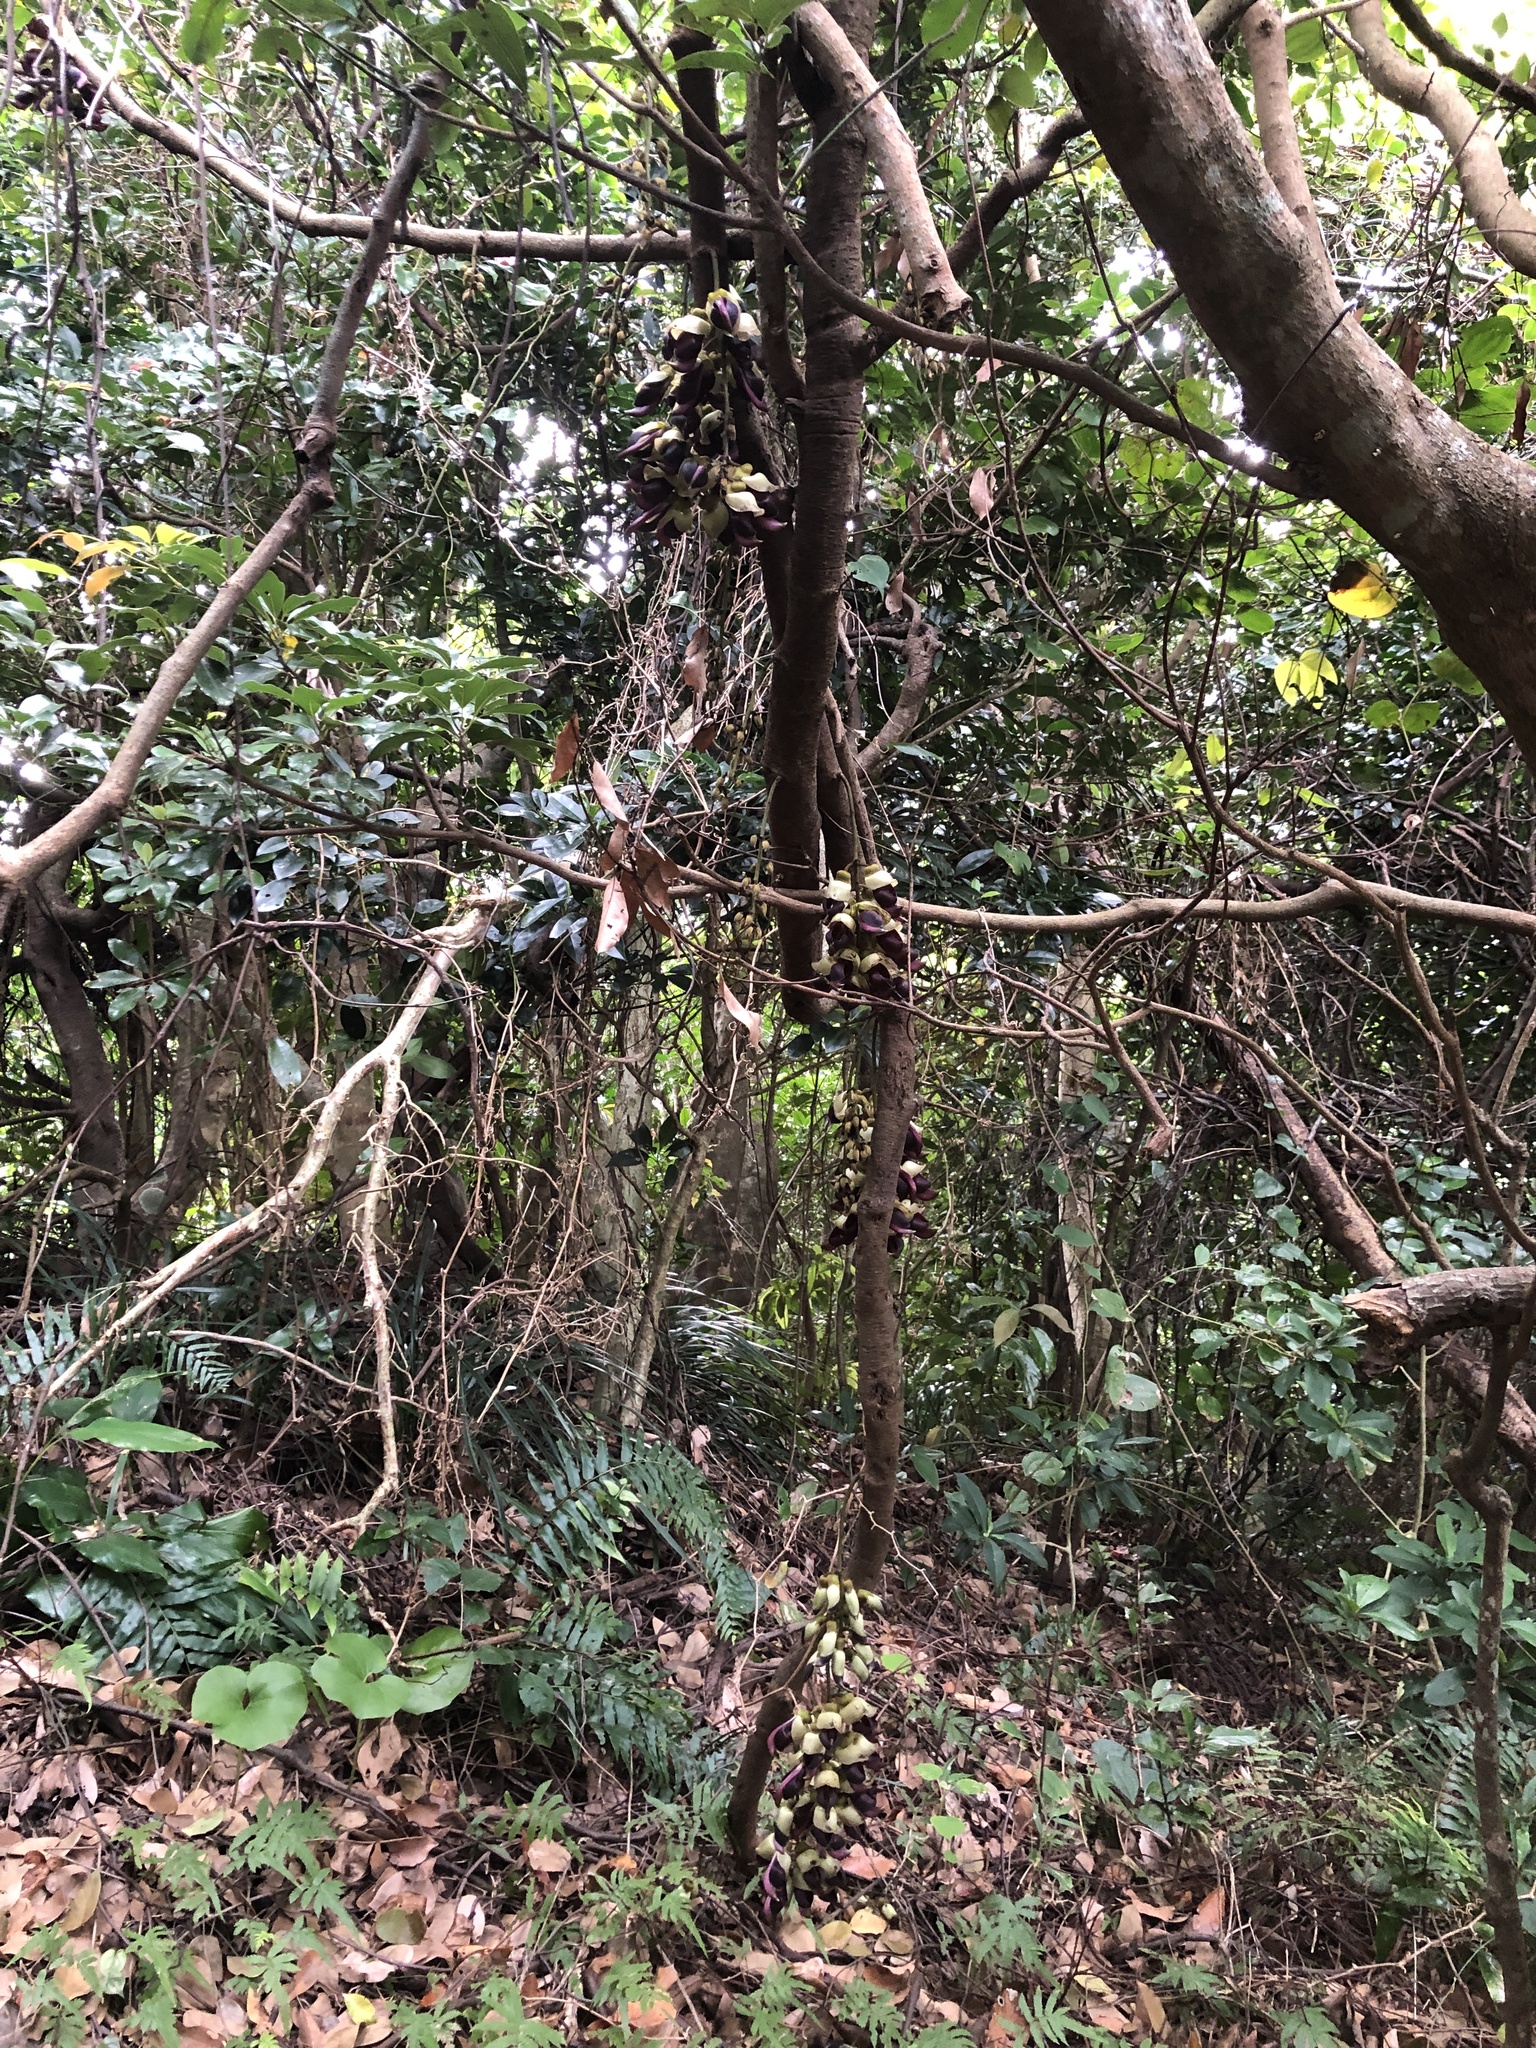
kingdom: Plantae
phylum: Tracheophyta
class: Magnoliopsida
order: Fabales
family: Fabaceae
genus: Mucuna
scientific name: Mucuna macrocarpa
